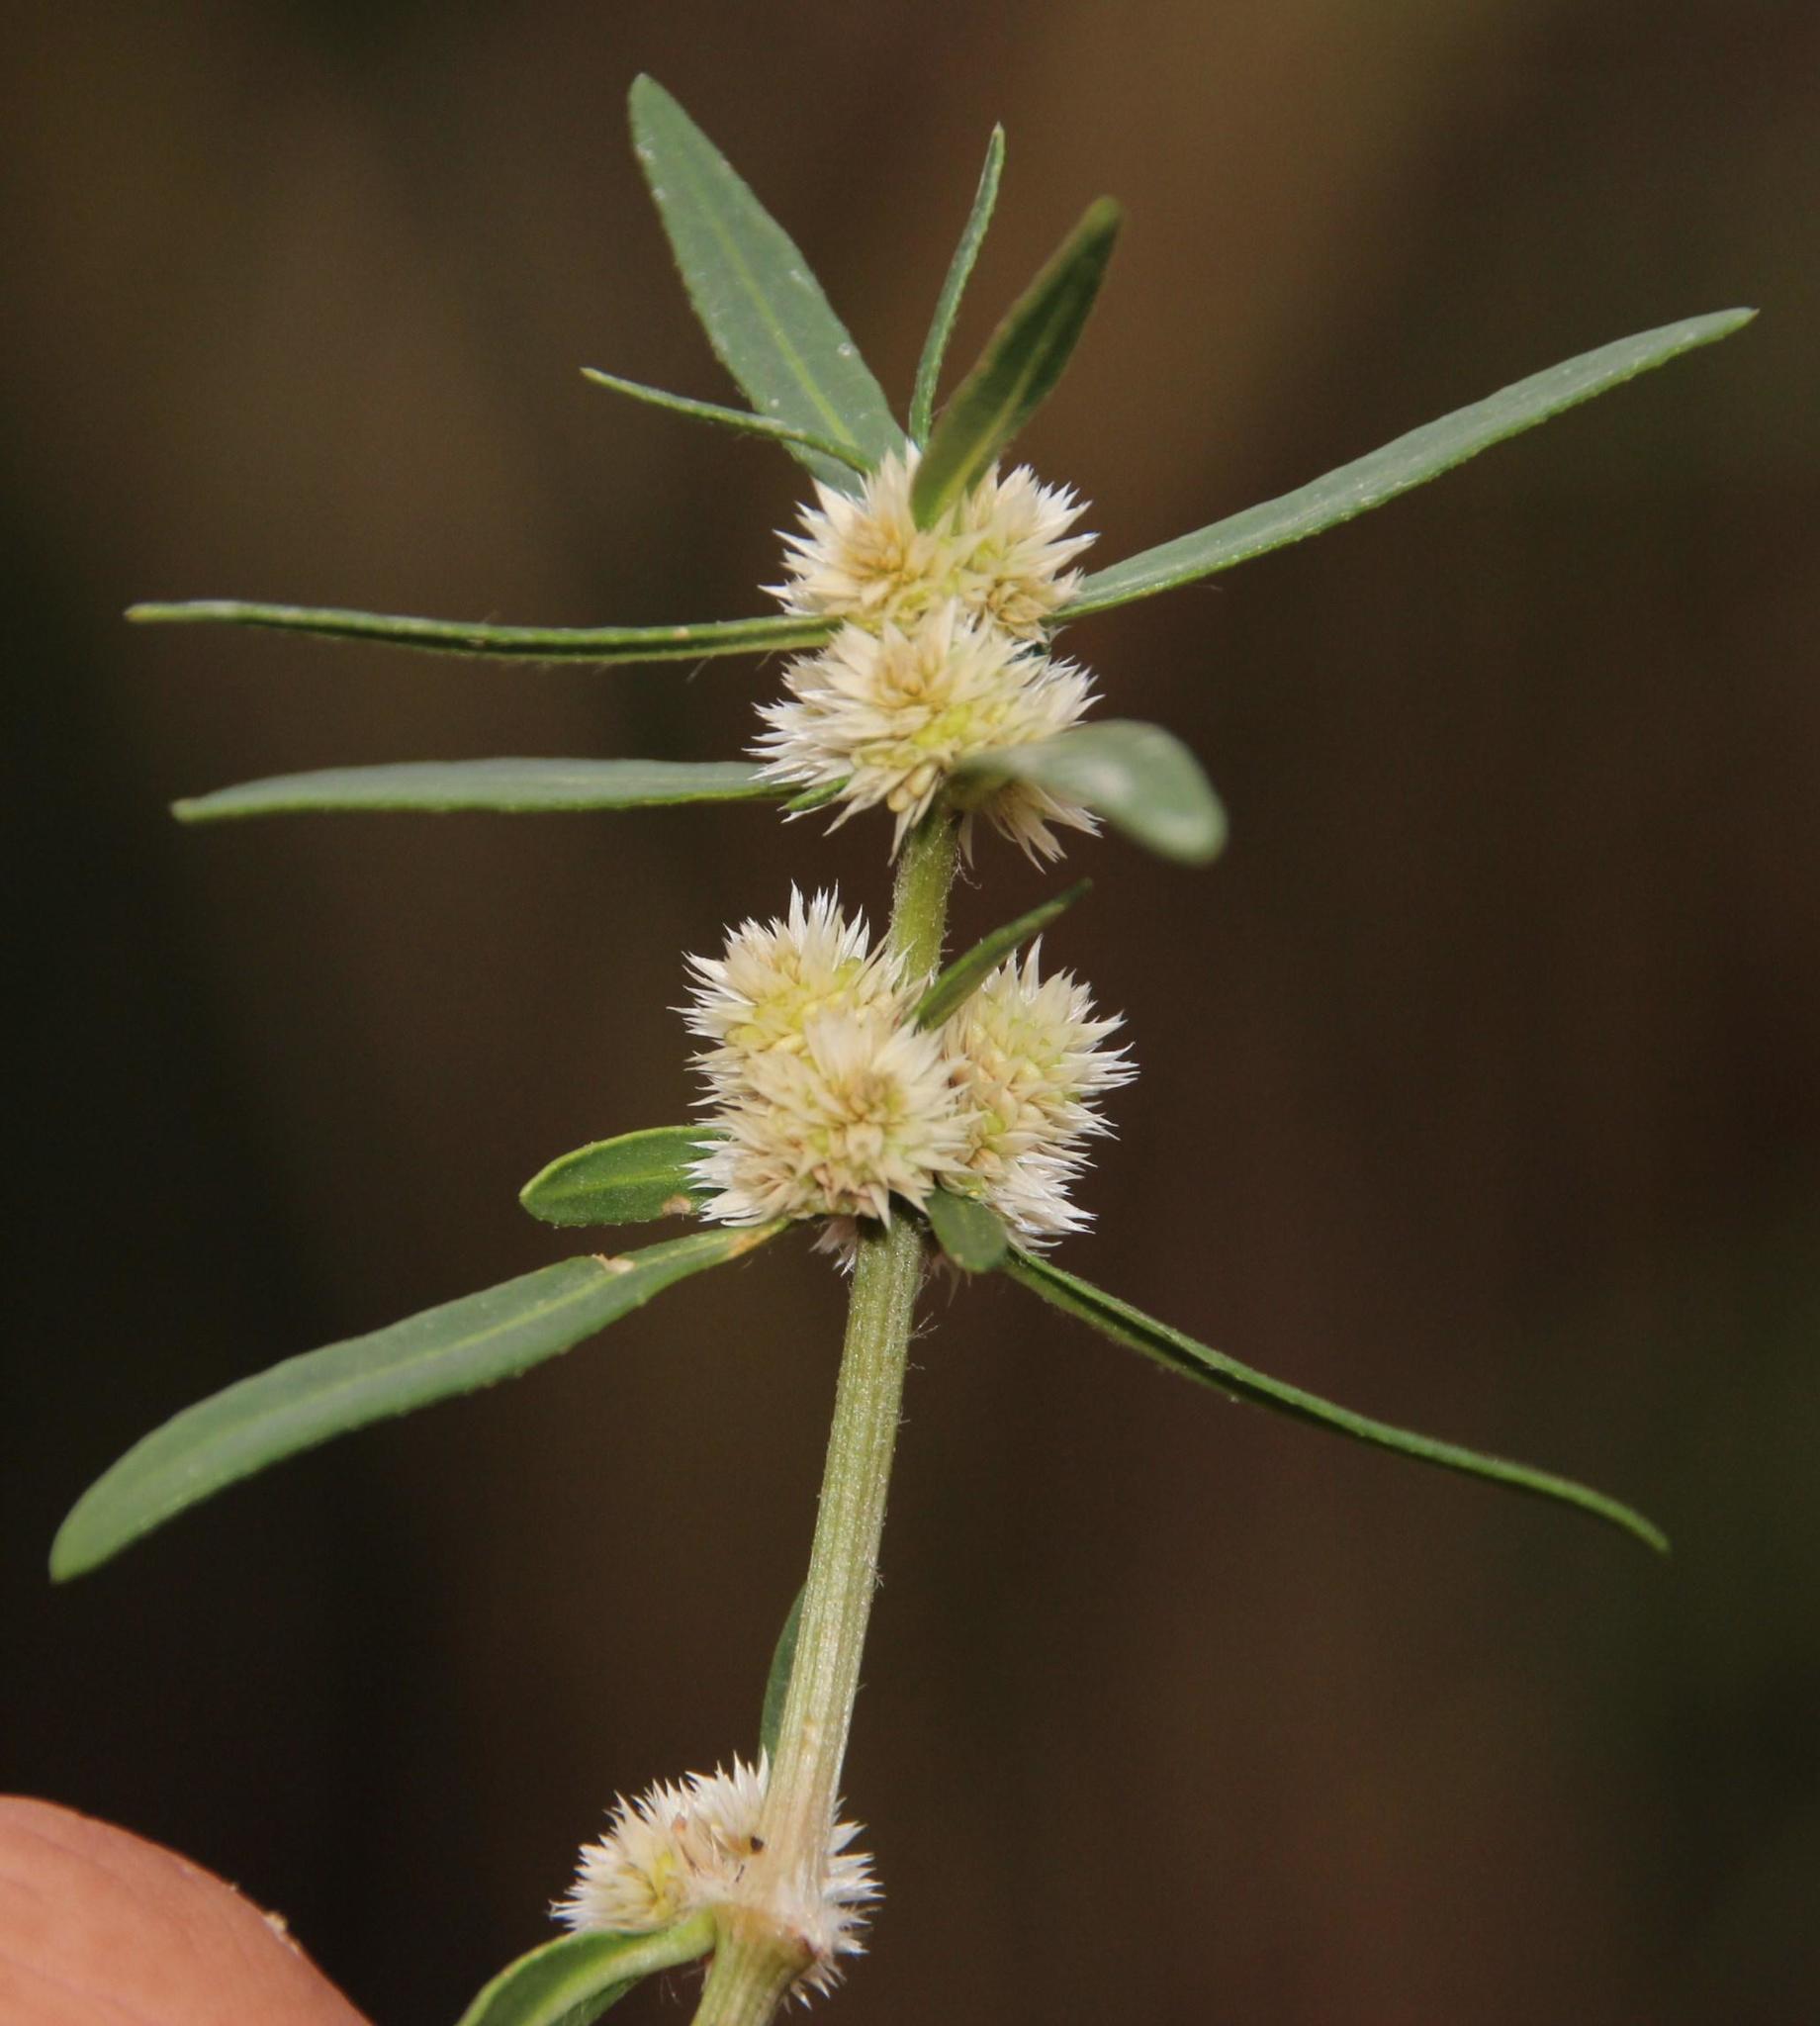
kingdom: Plantae
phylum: Tracheophyta
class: Magnoliopsida
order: Caryophyllales
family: Amaranthaceae
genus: Alternanthera
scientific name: Alternanthera sessilis
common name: Sessile joyweed
